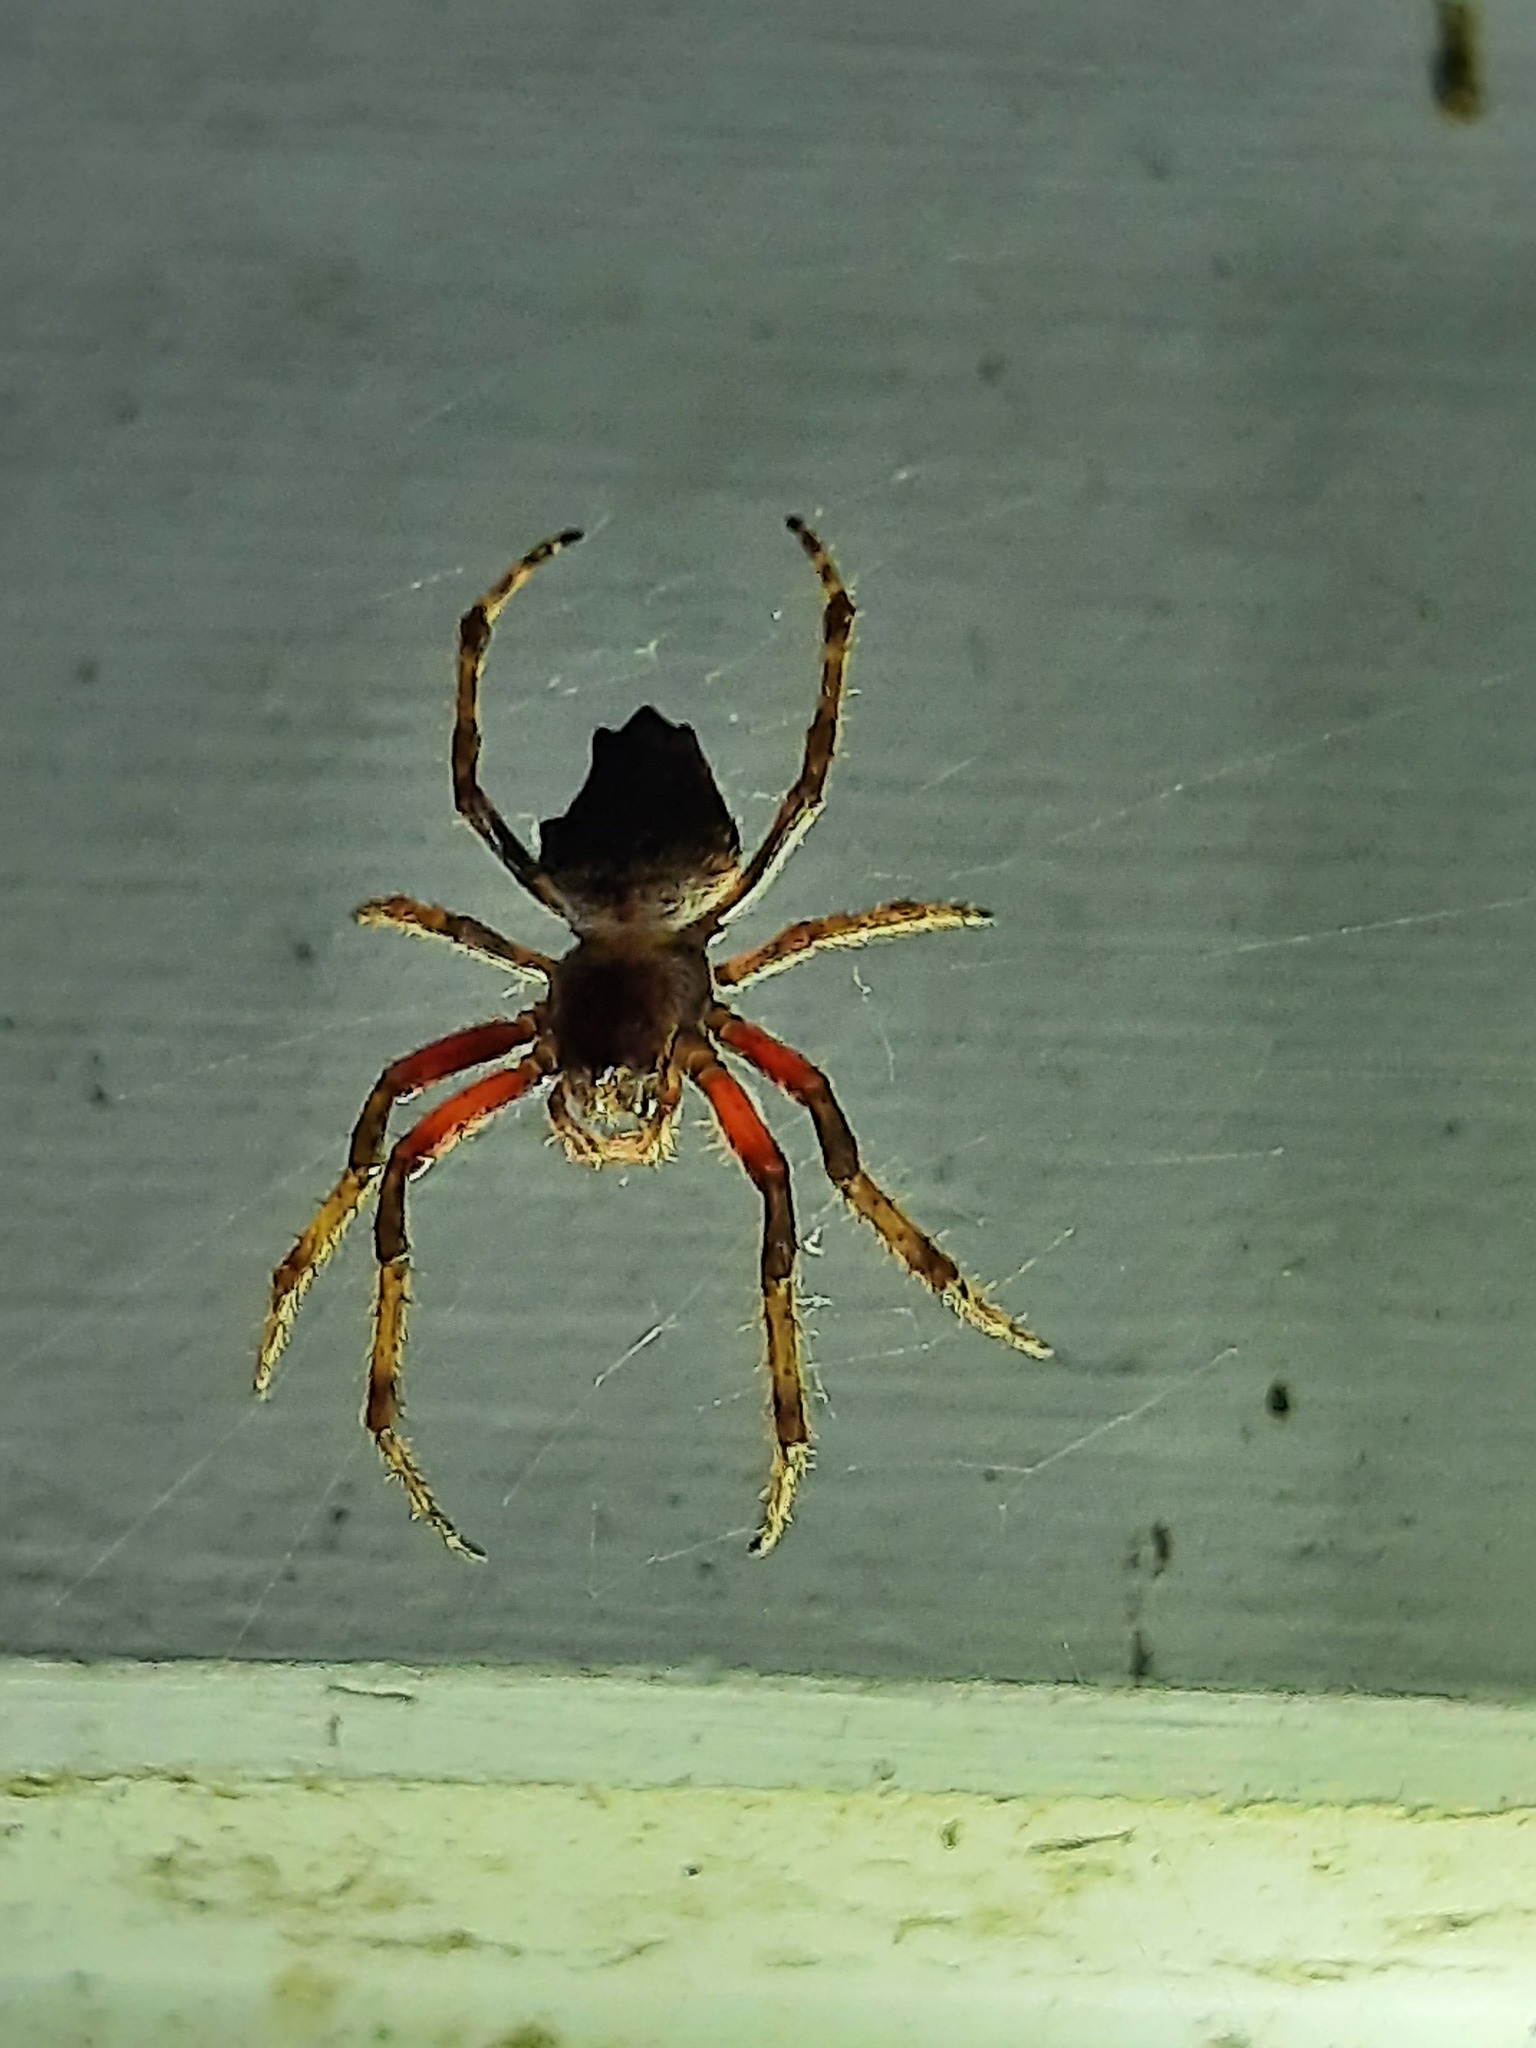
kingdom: Animalia
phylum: Arthropoda
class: Arachnida
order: Araneae
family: Araneidae
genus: Eriophora
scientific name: Eriophora pustulosa
